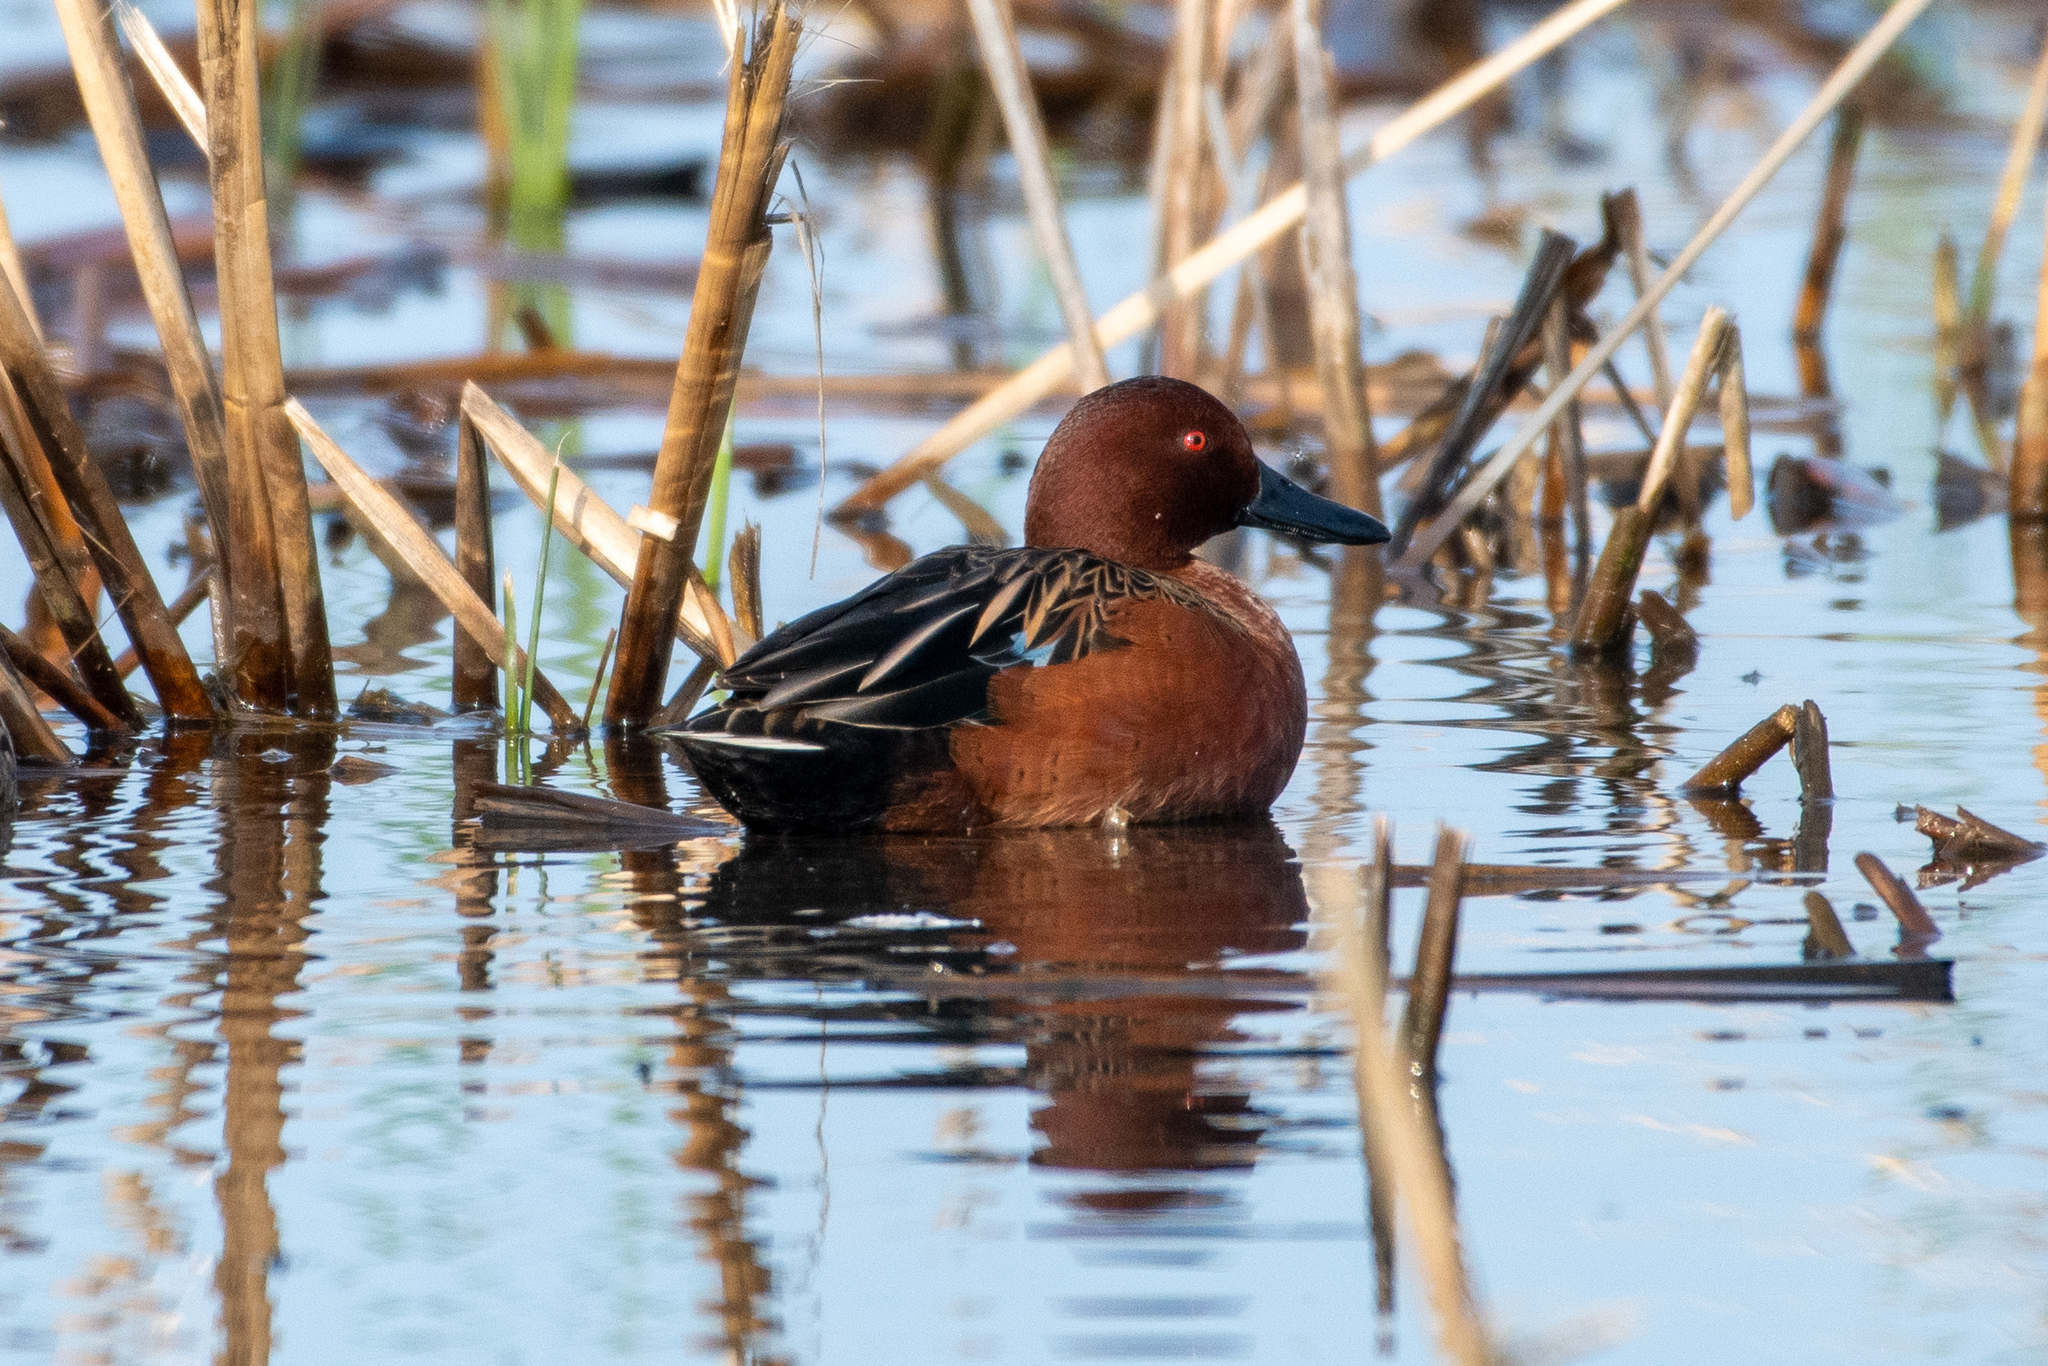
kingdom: Animalia
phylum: Chordata
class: Aves
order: Anseriformes
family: Anatidae
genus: Spatula
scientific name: Spatula cyanoptera
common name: Cinnamon teal
